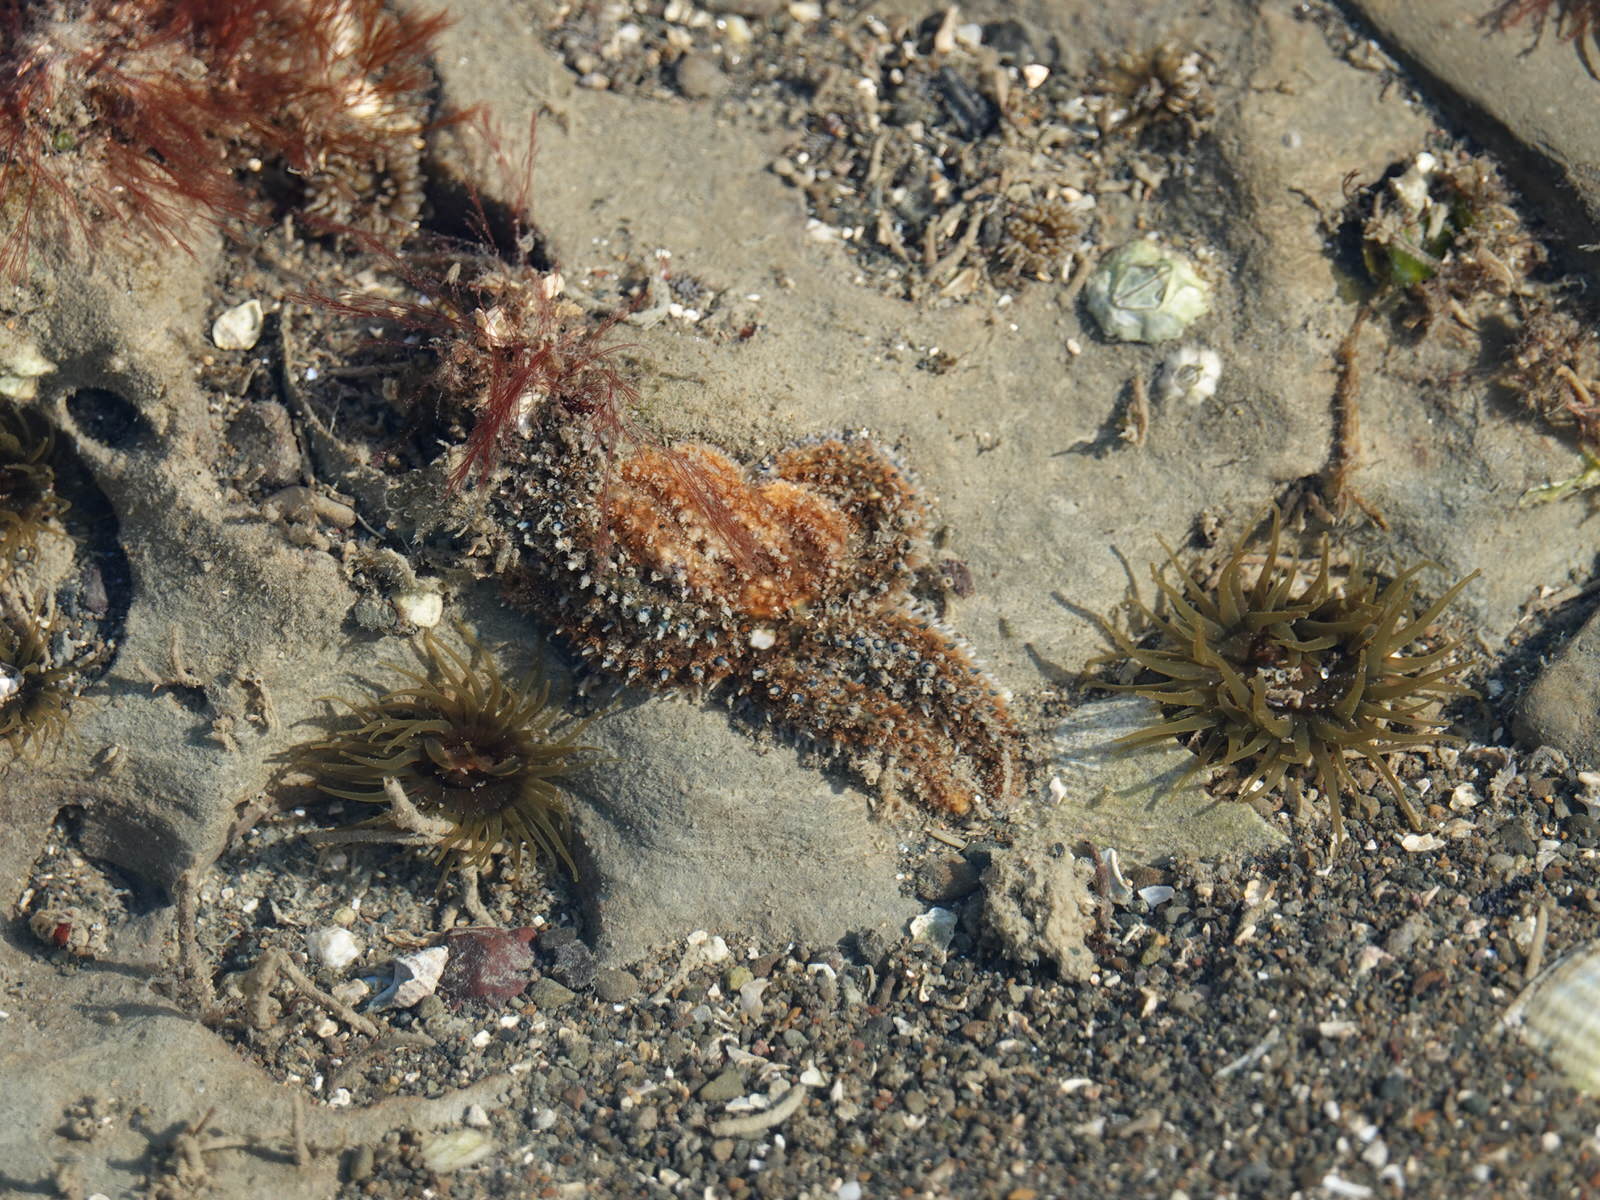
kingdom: Animalia
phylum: Echinodermata
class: Asteroidea
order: Forcipulatida
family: Asteriidae
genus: Coscinasterias
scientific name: Coscinasterias muricata
